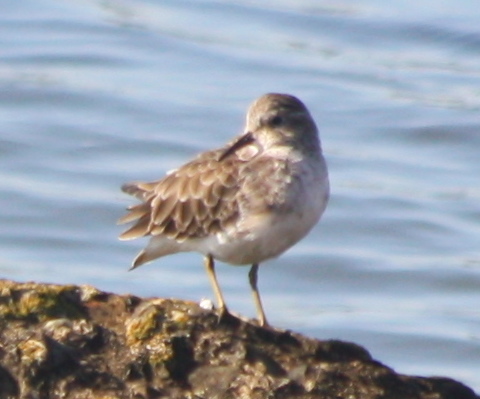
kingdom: Animalia
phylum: Chordata
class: Aves
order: Charadriiformes
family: Scolopacidae
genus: Calidris
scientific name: Calidris minutilla
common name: Least sandpiper
